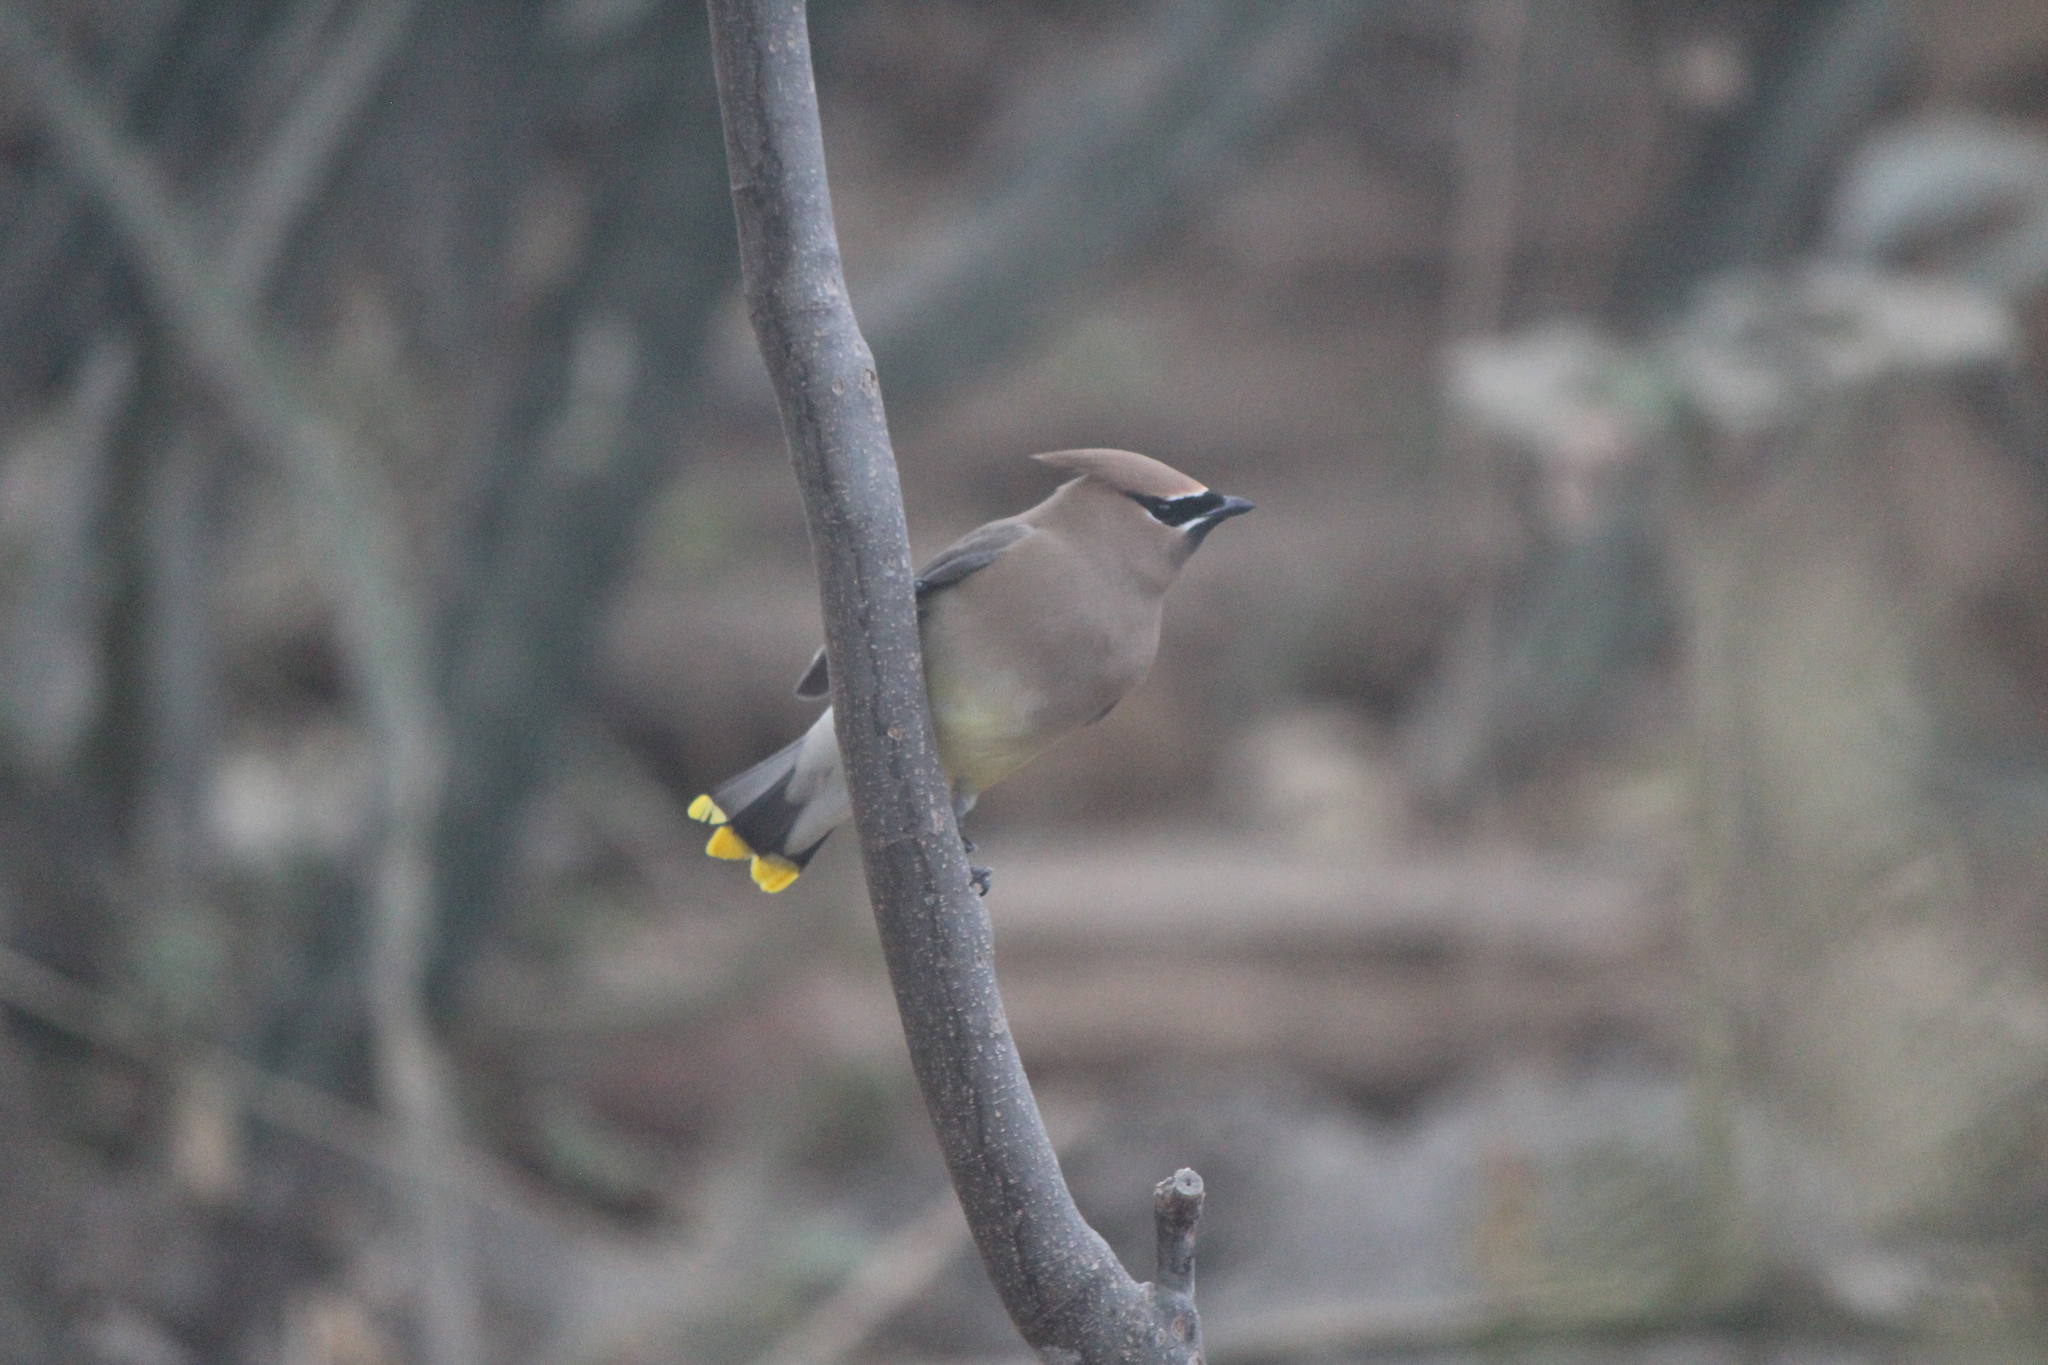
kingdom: Animalia
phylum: Chordata
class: Aves
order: Passeriformes
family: Bombycillidae
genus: Bombycilla
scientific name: Bombycilla cedrorum
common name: Cedar waxwing
